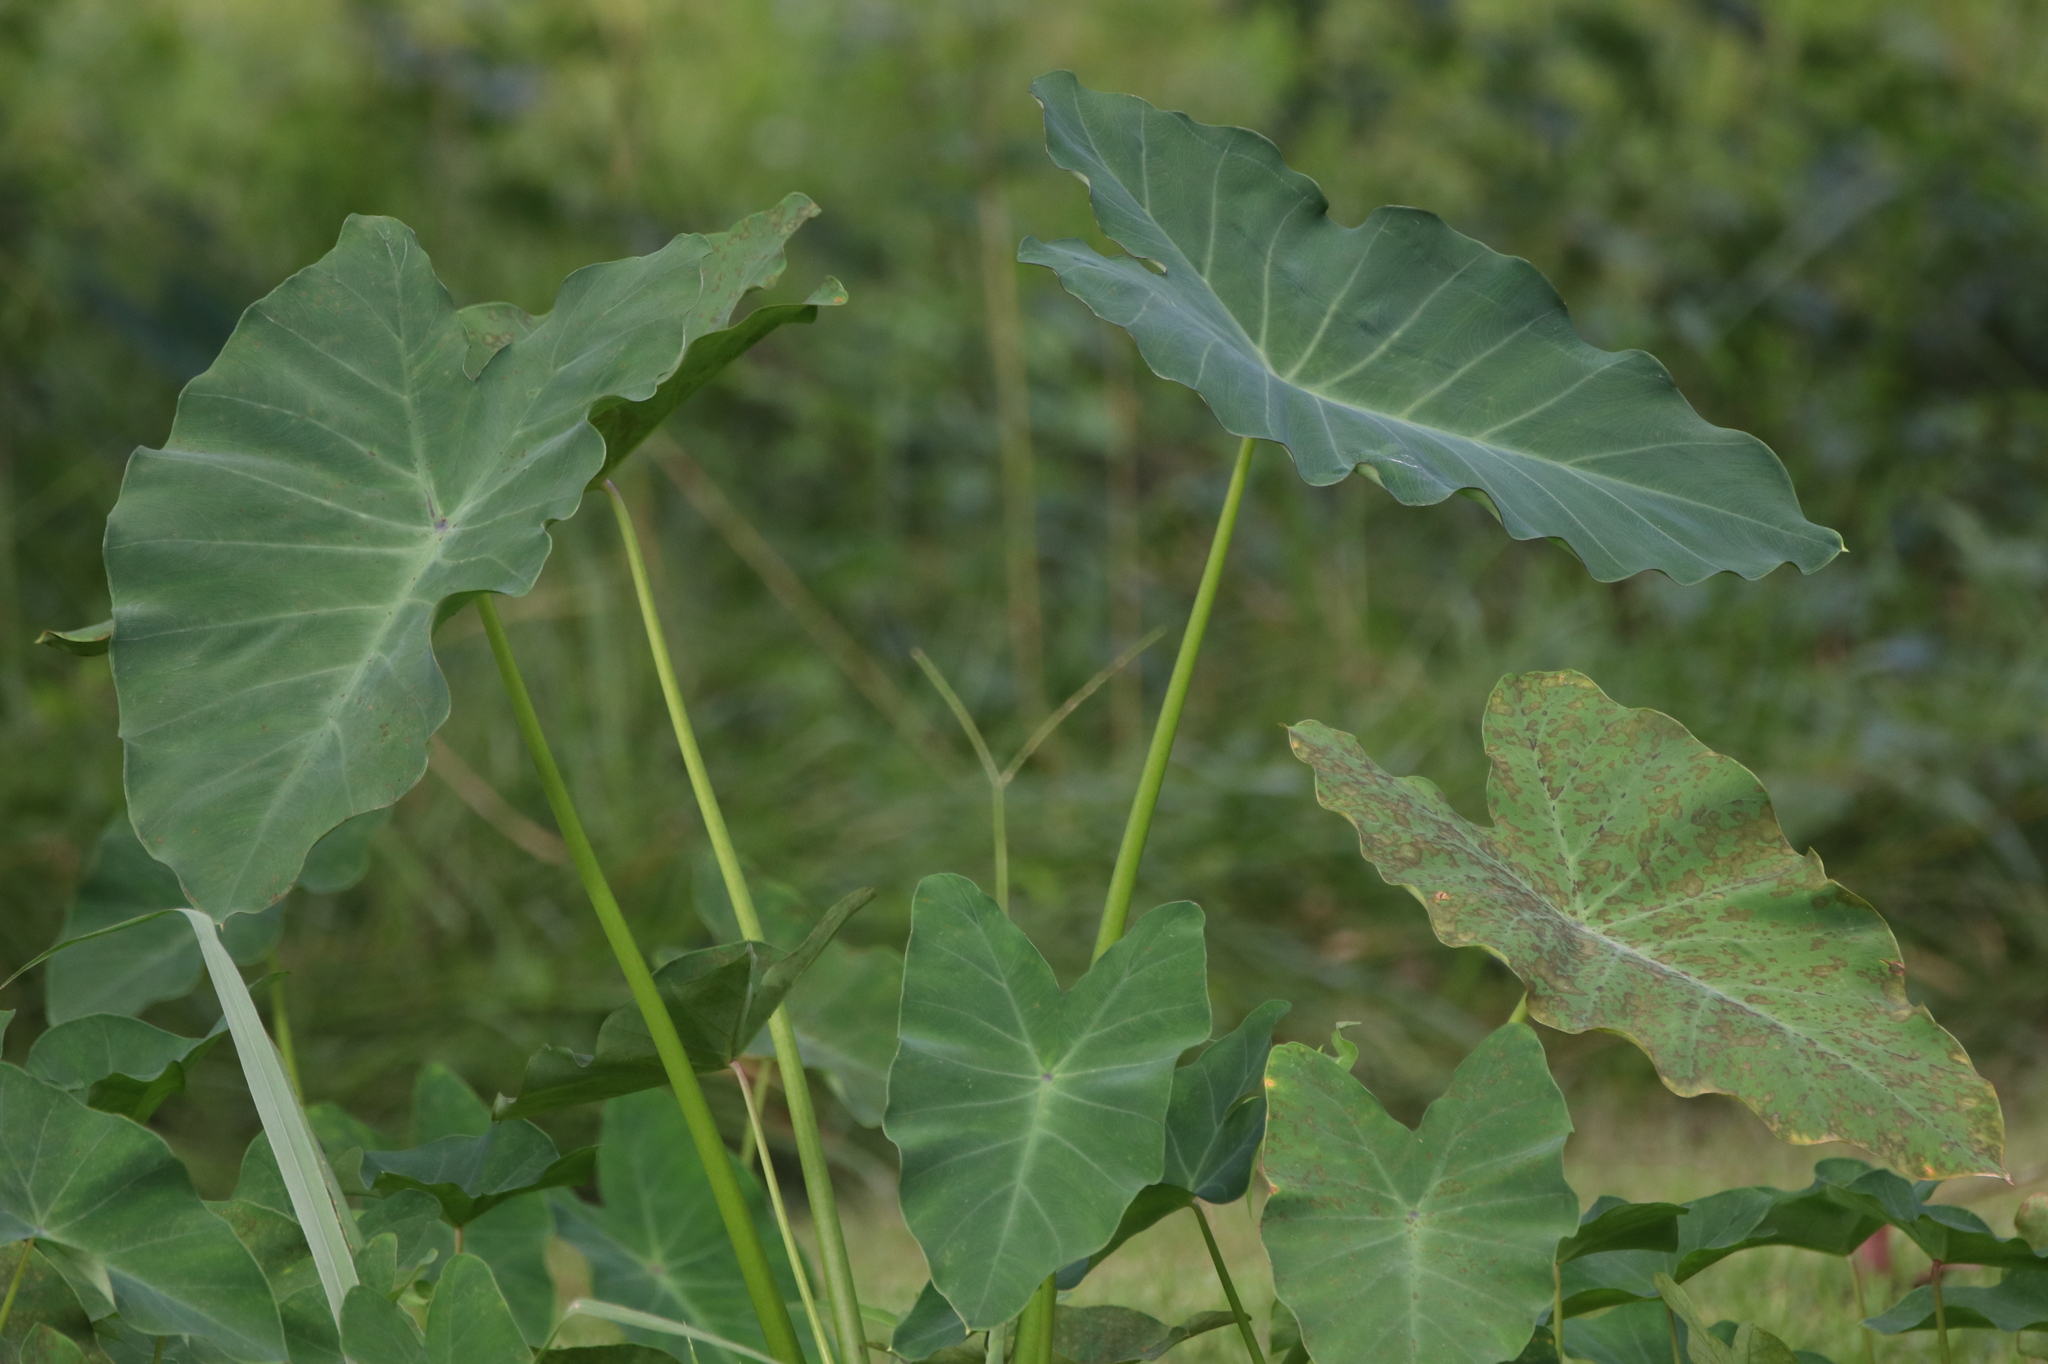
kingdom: Plantae
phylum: Tracheophyta
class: Liliopsida
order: Alismatales
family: Araceae
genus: Colocasia
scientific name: Colocasia esculenta
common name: Taro
